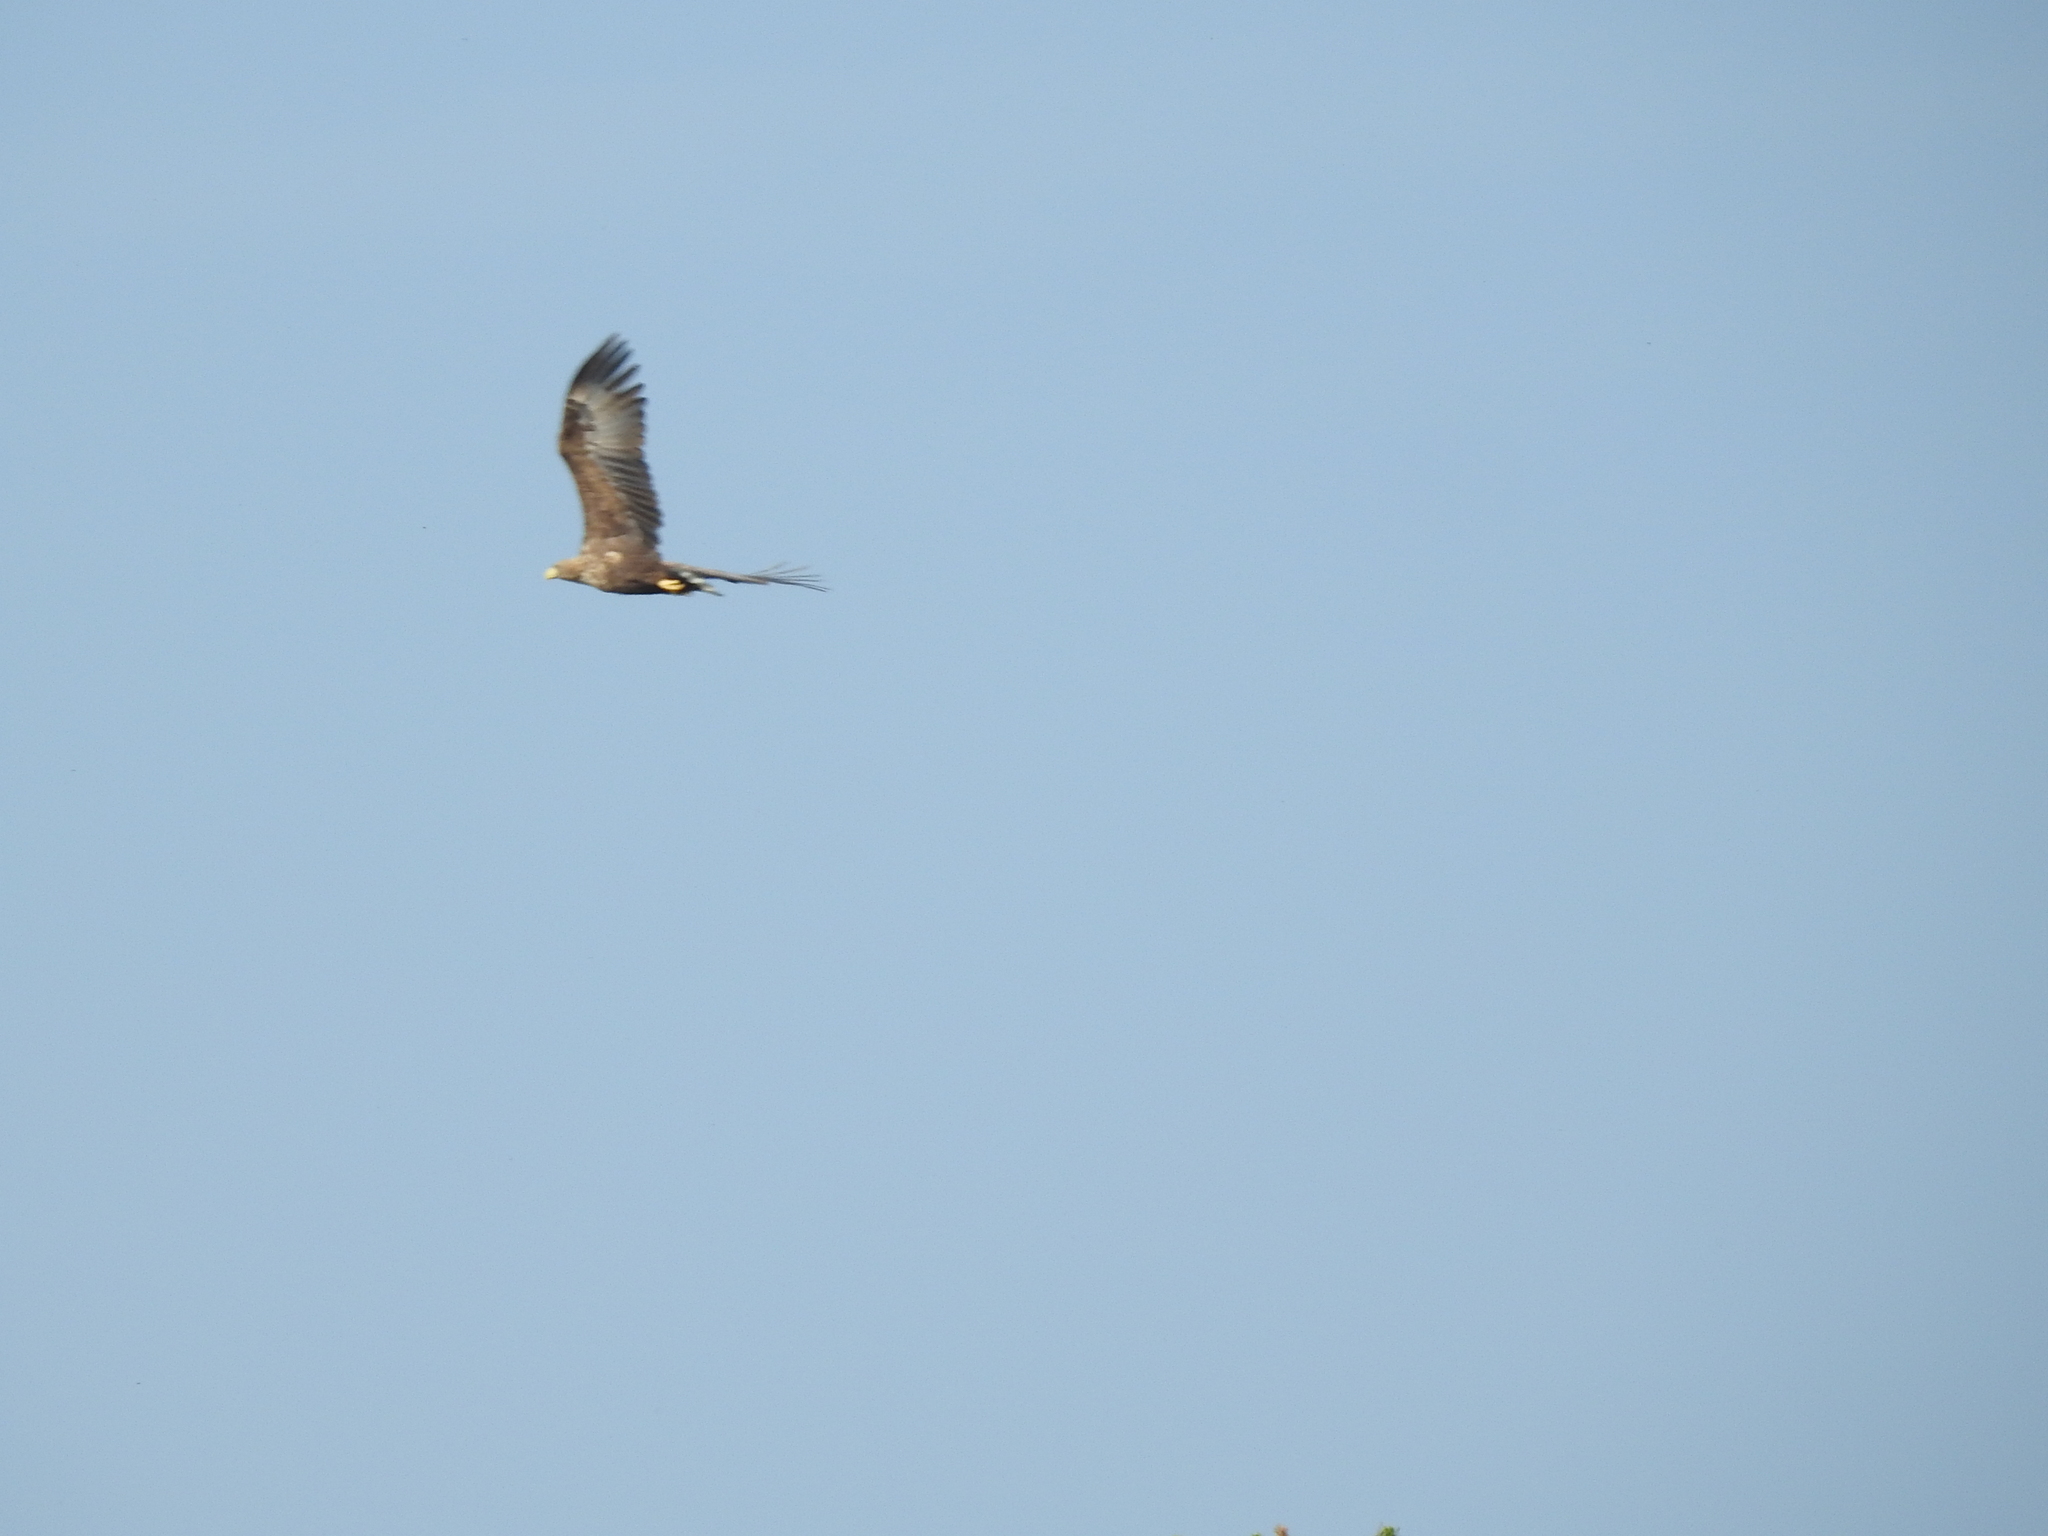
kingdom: Animalia
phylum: Chordata
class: Aves
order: Accipitriformes
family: Accipitridae
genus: Haliaeetus
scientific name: Haliaeetus albicilla
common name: White-tailed eagle
